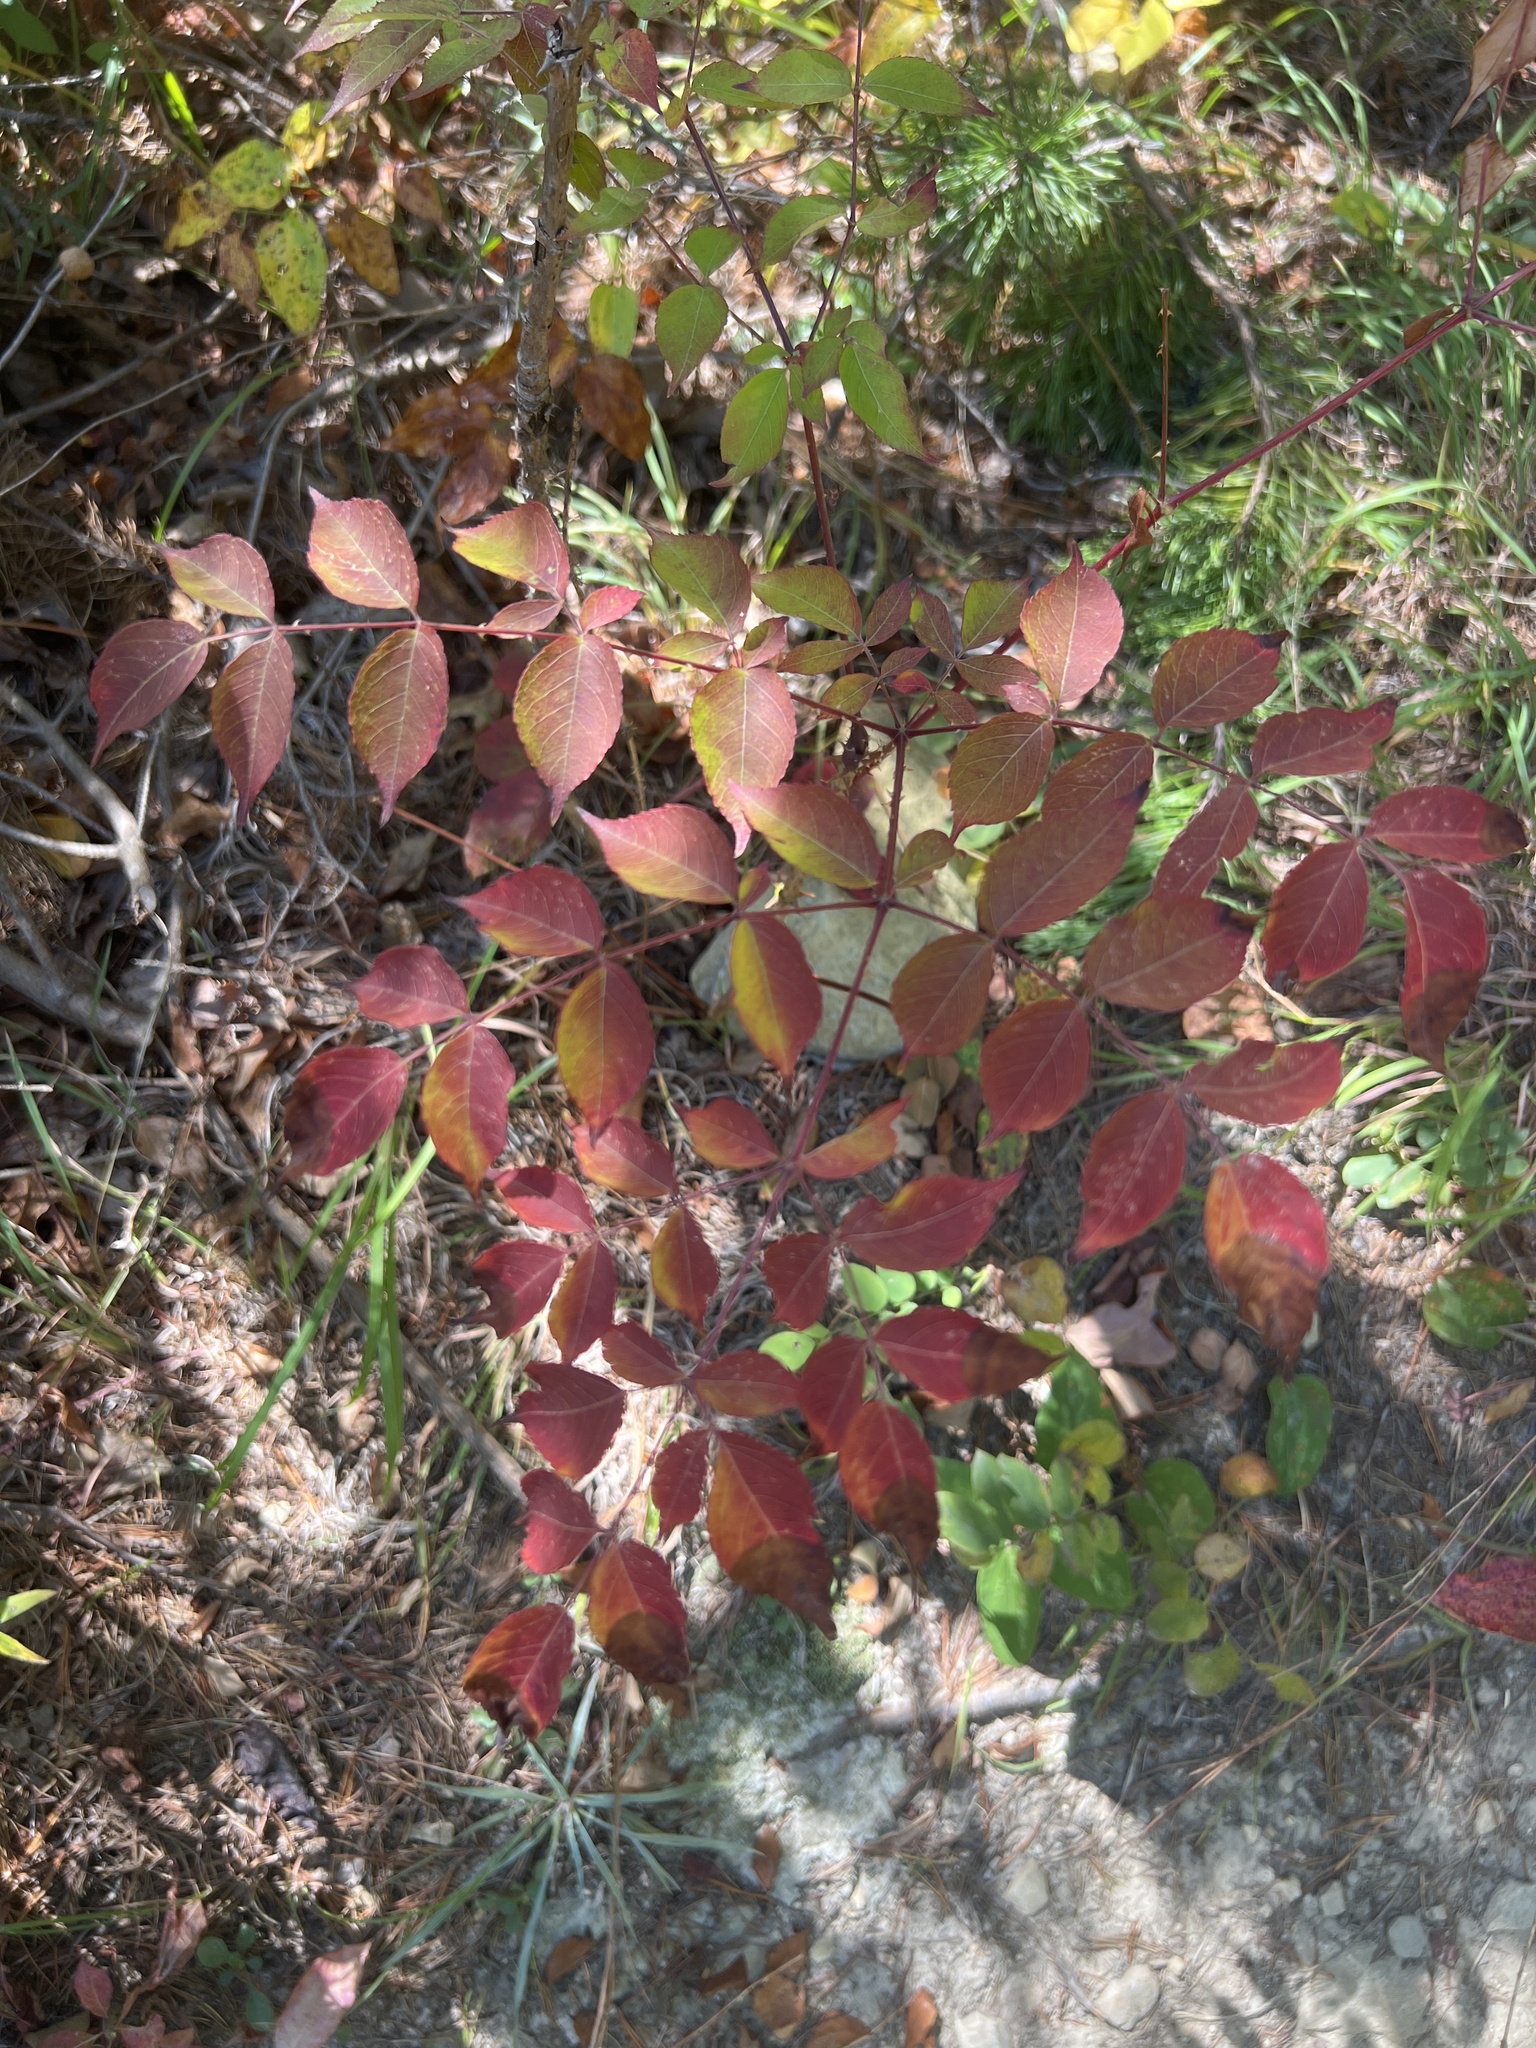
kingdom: Plantae
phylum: Tracheophyta
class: Magnoliopsida
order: Apiales
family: Araliaceae
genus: Aralia
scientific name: Aralia spinosa
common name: Hercules'-club
